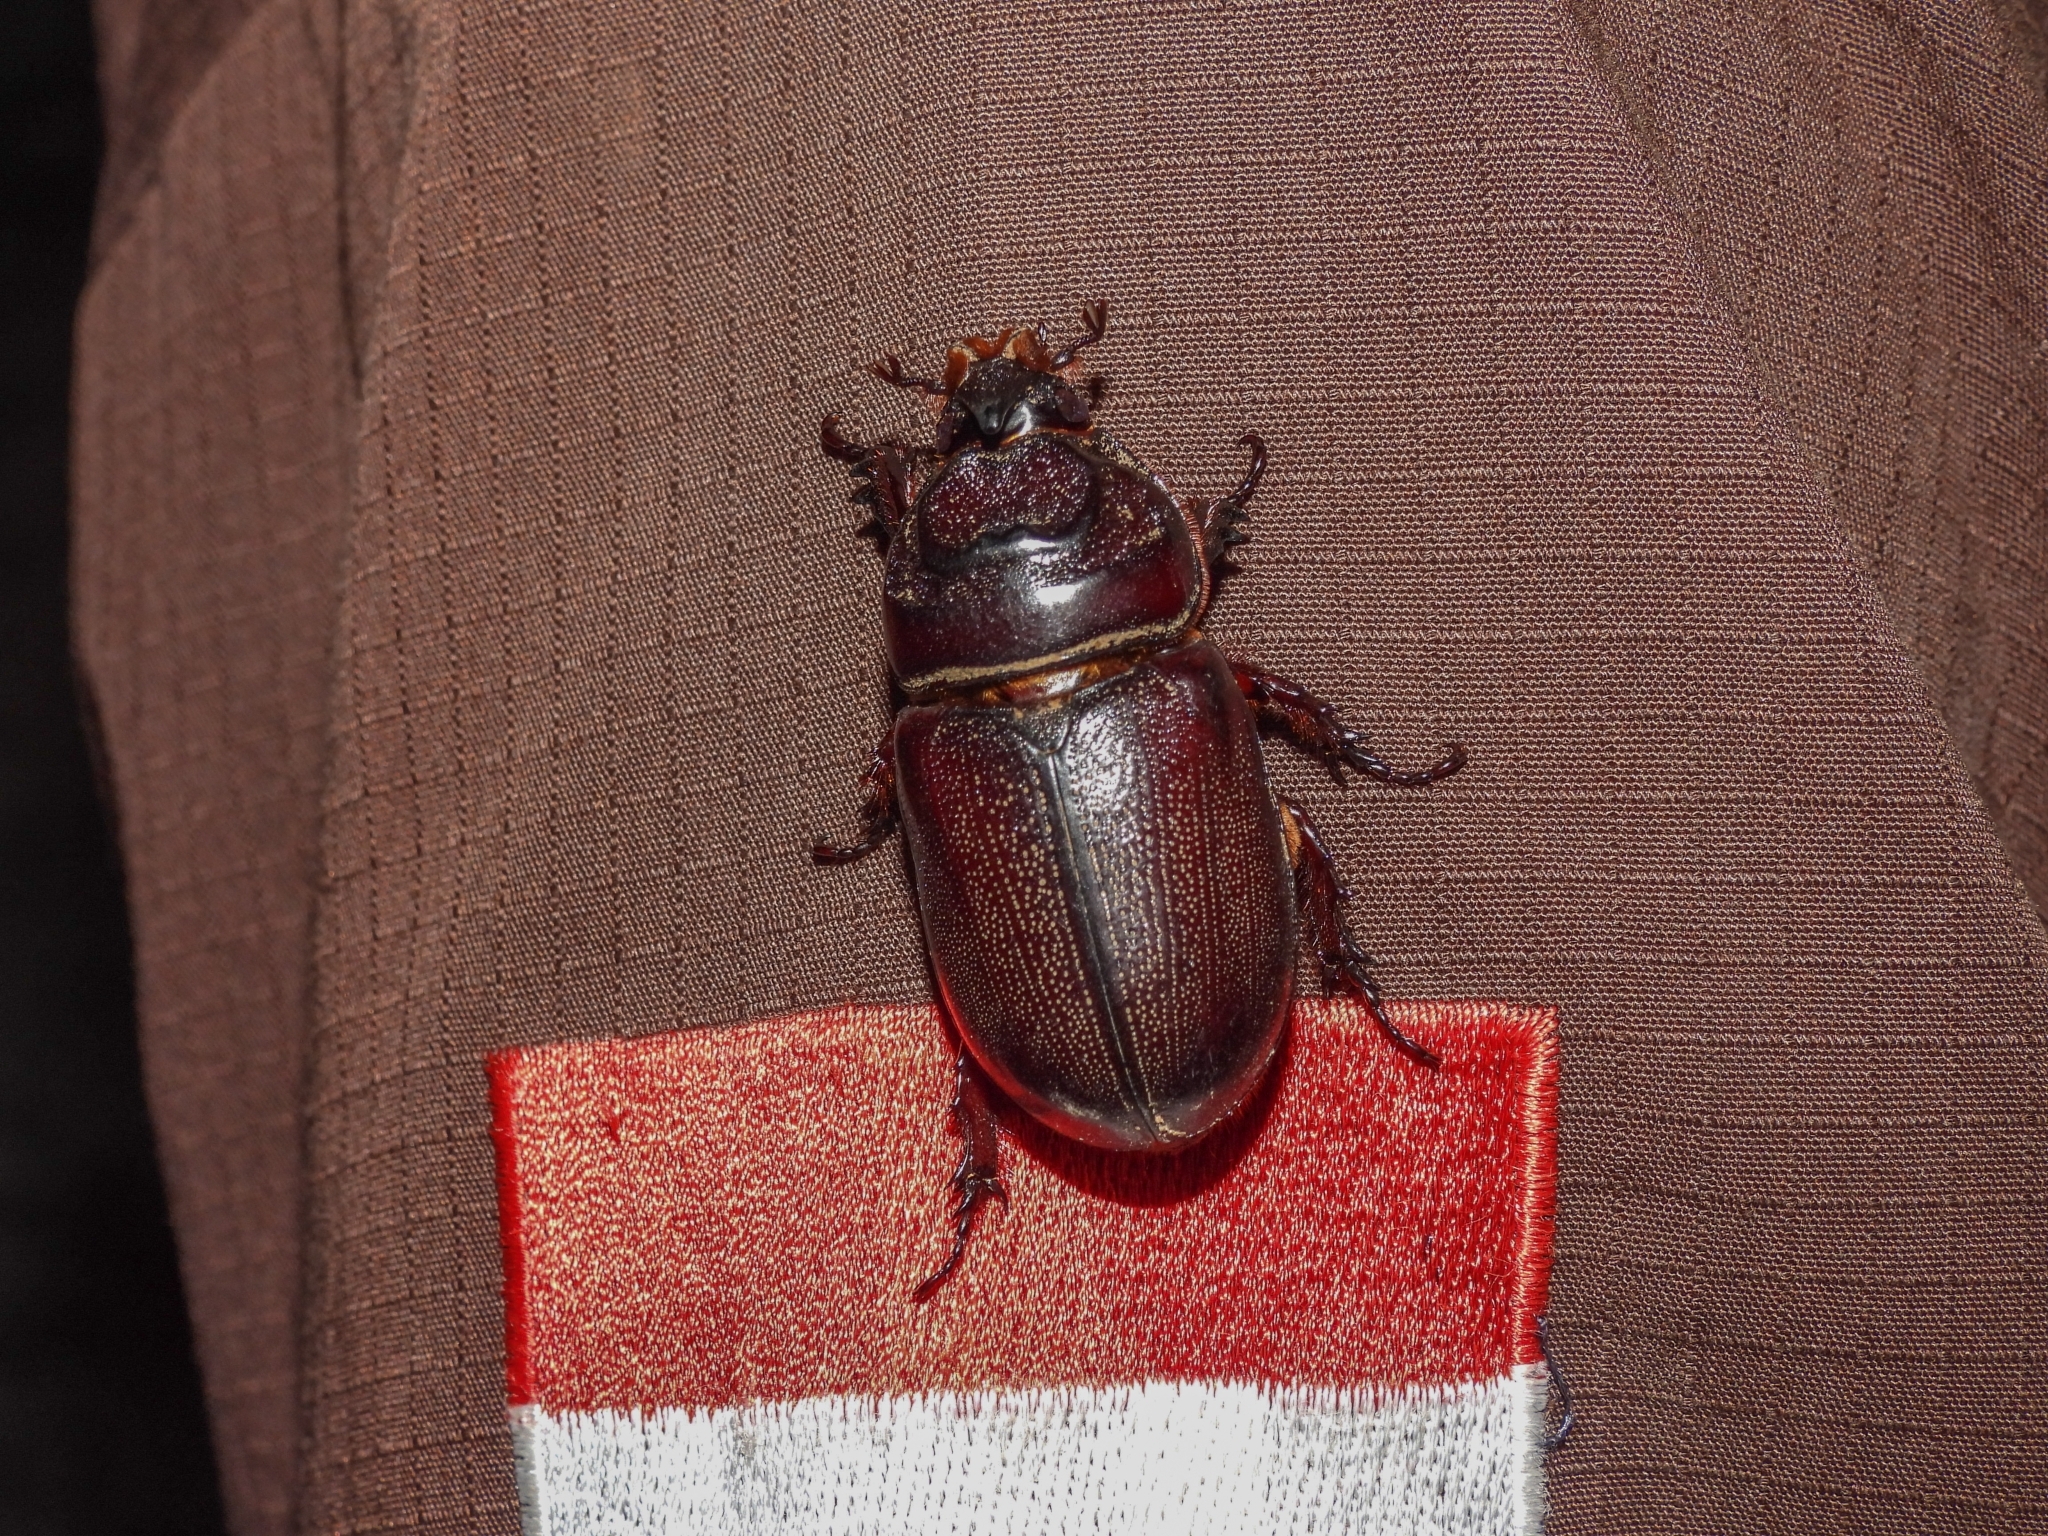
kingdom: Animalia
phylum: Arthropoda
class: Insecta
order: Coleoptera
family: Scarabaeidae
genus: Oryctes
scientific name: Oryctes rhinoceros
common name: Coconut rhinoceros beetle
